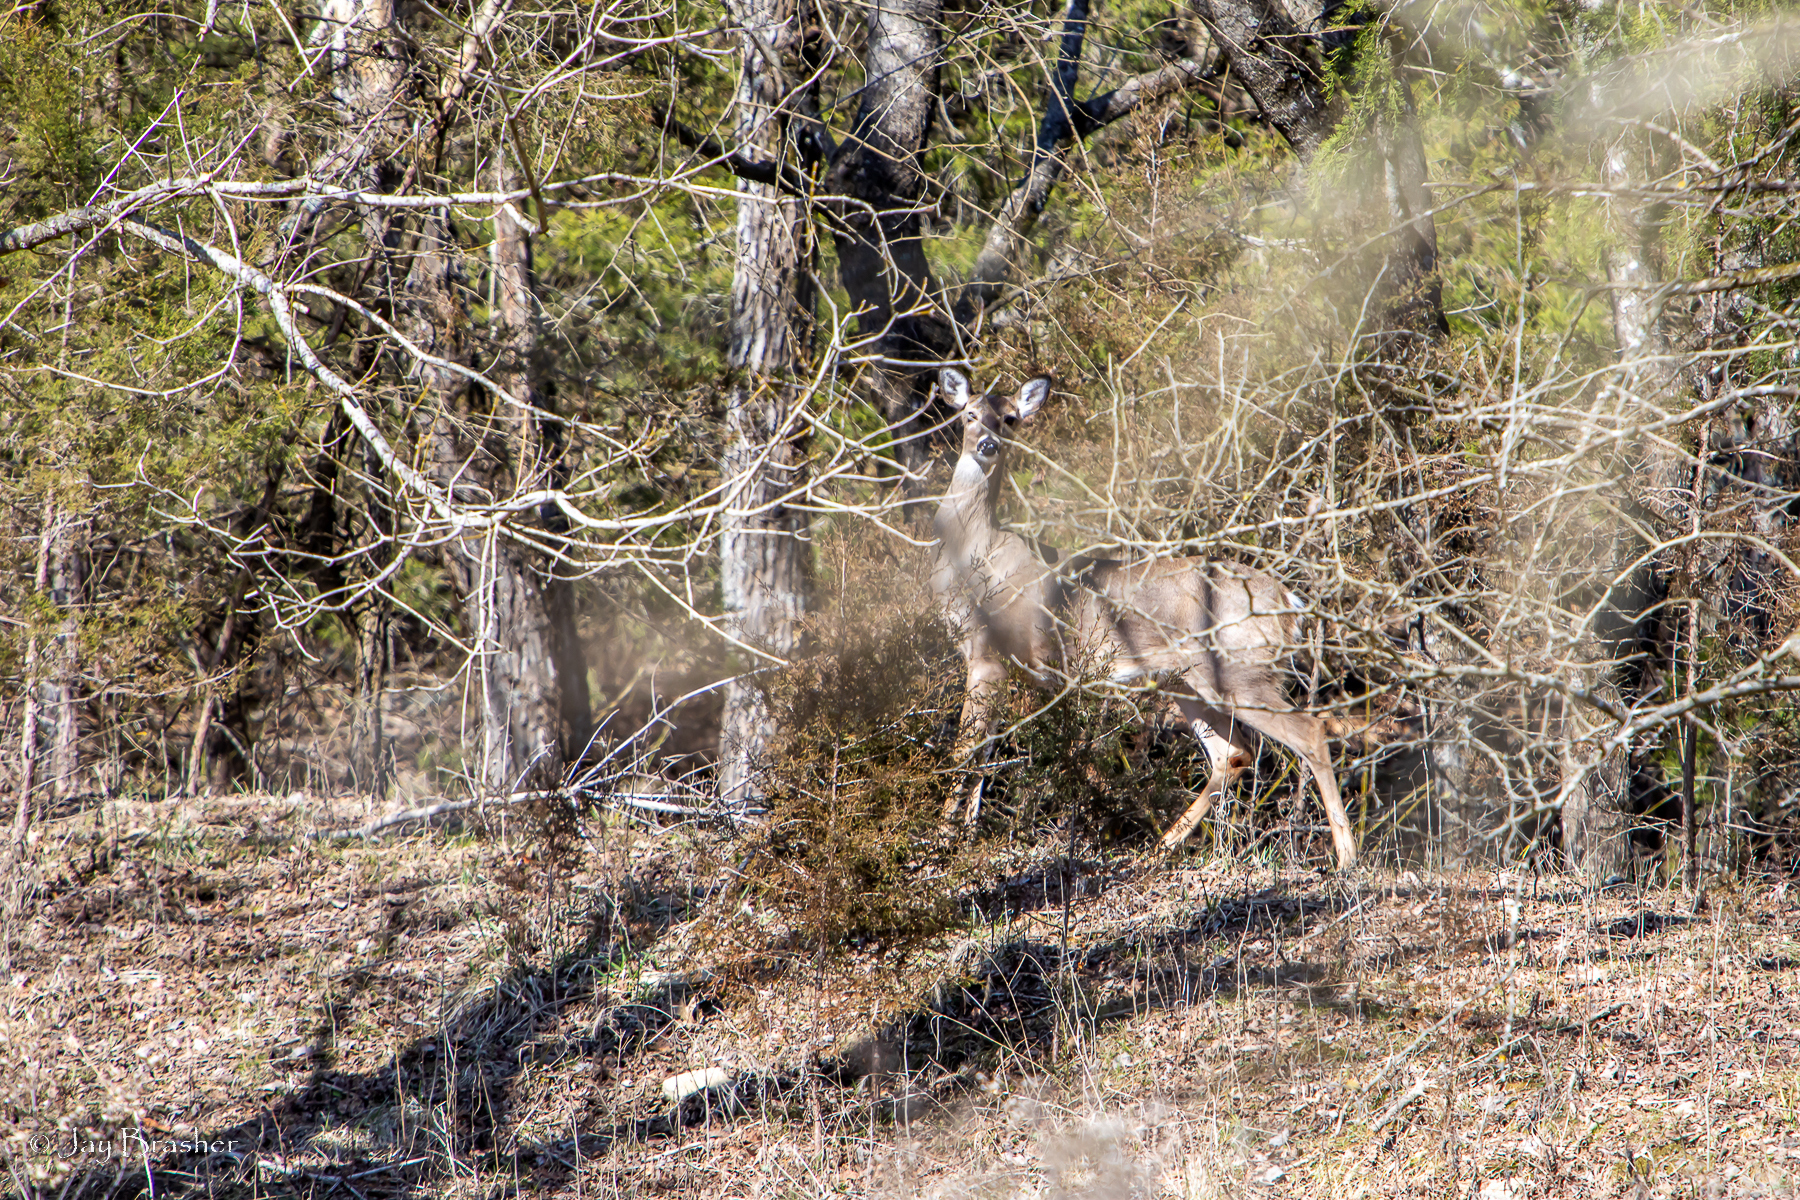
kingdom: Animalia
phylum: Chordata
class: Mammalia
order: Artiodactyla
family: Cervidae
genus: Odocoileus
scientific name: Odocoileus virginianus
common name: White-tailed deer
